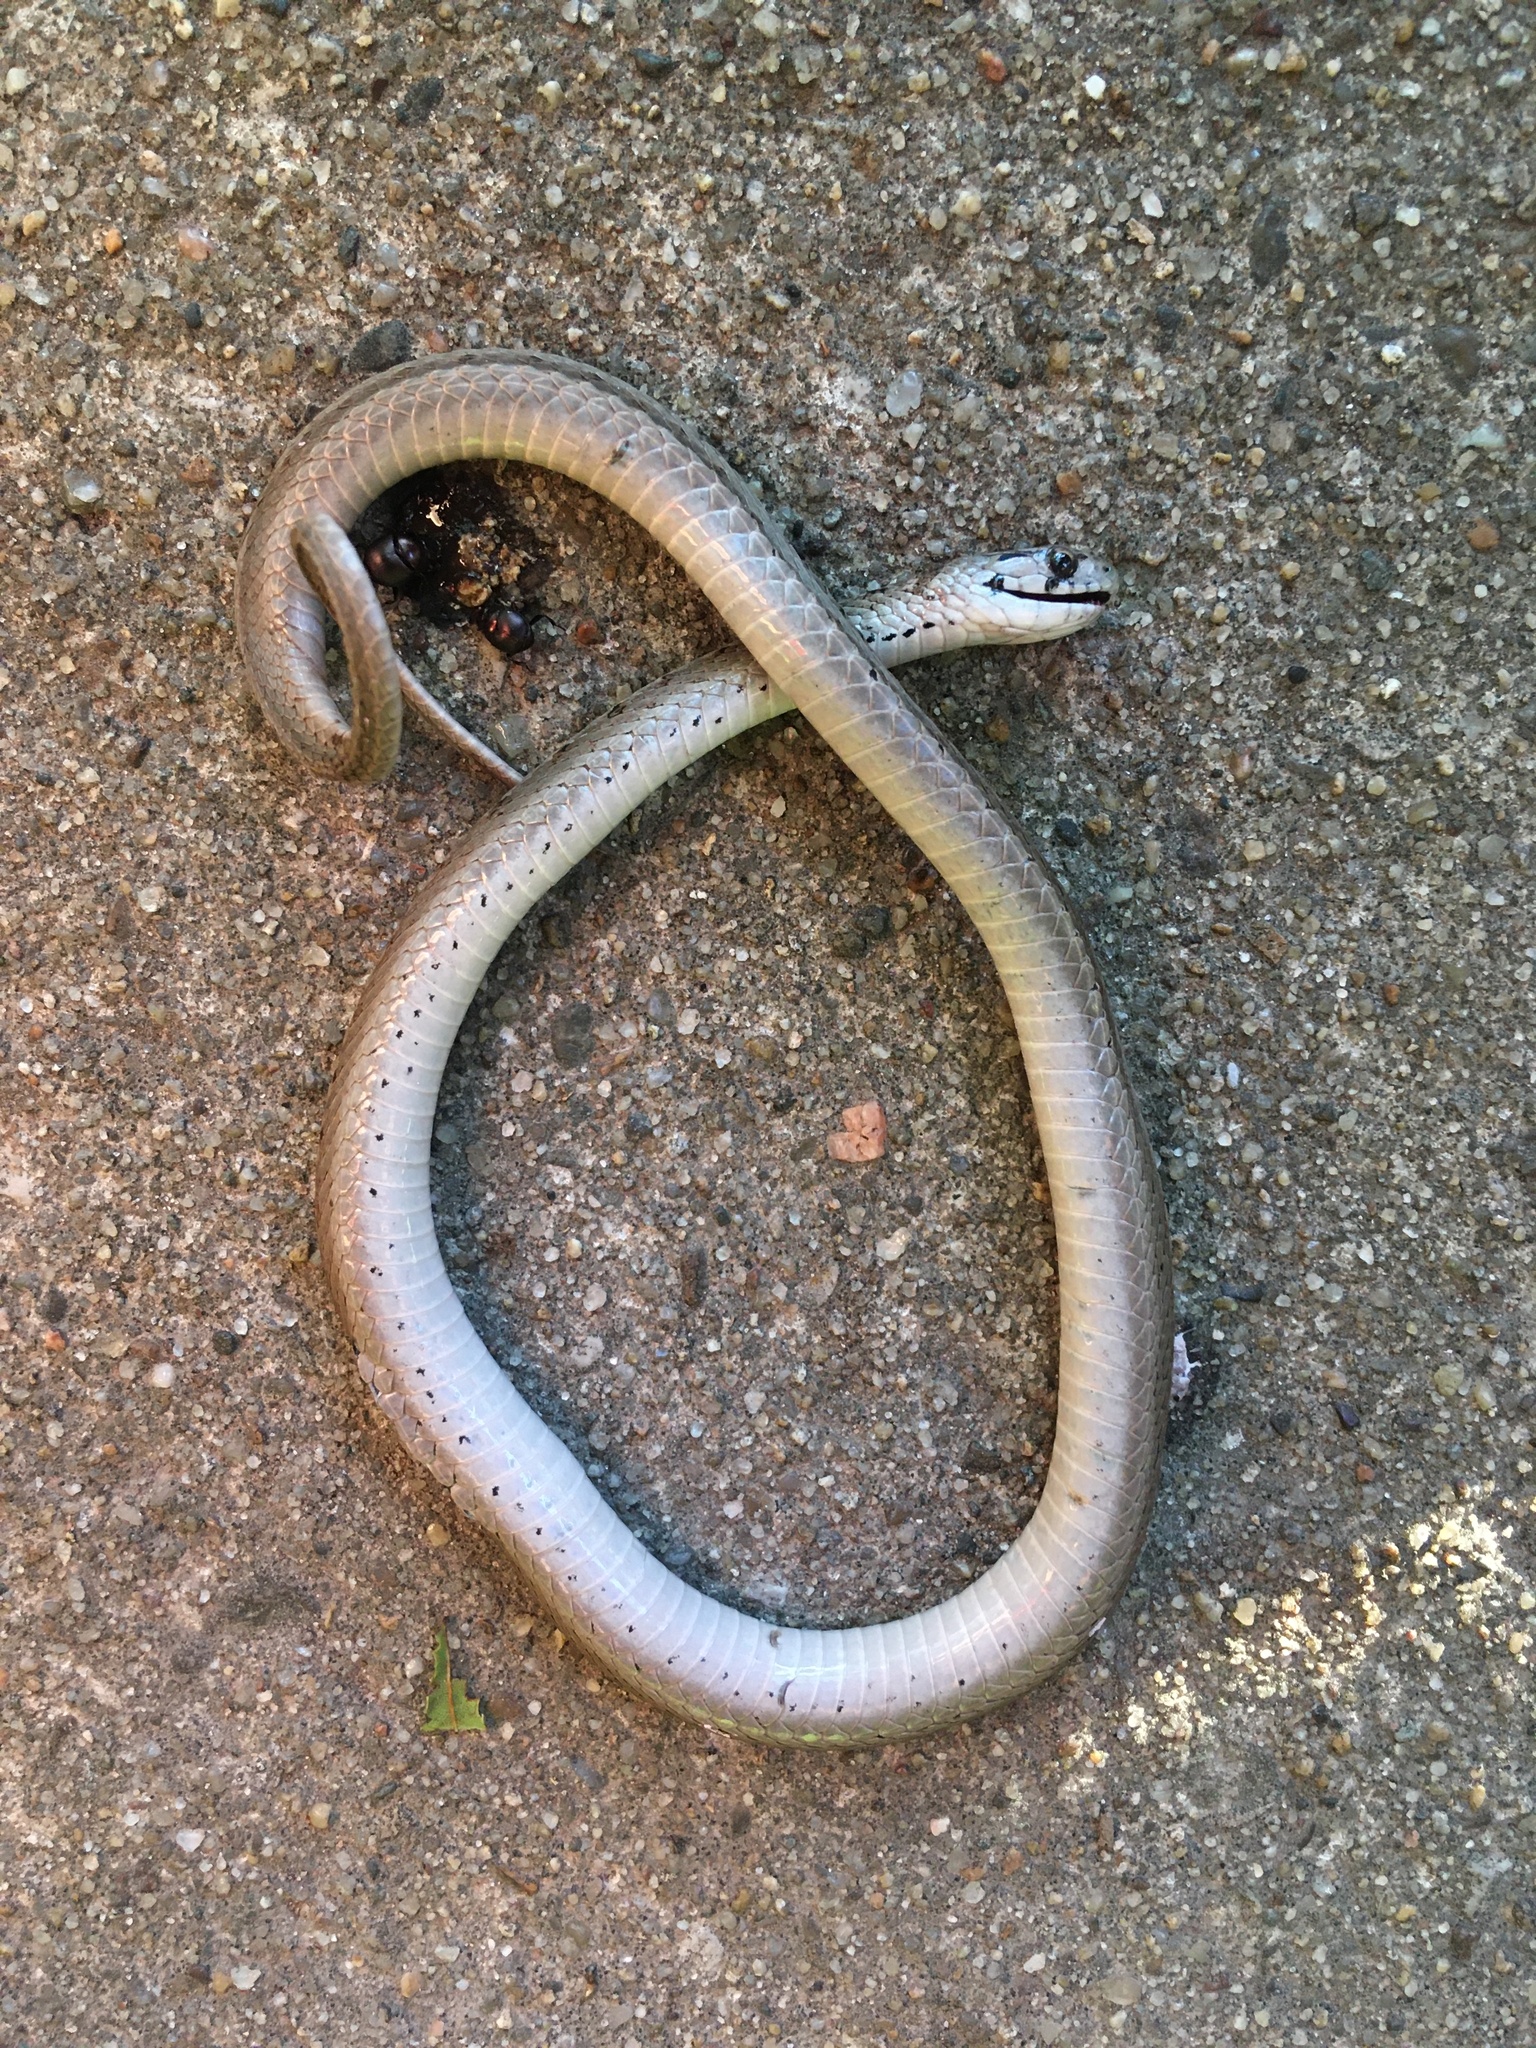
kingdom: Animalia
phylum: Chordata
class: Squamata
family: Colubridae
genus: Storeria
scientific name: Storeria dekayi
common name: (dekay’s) brown snake
